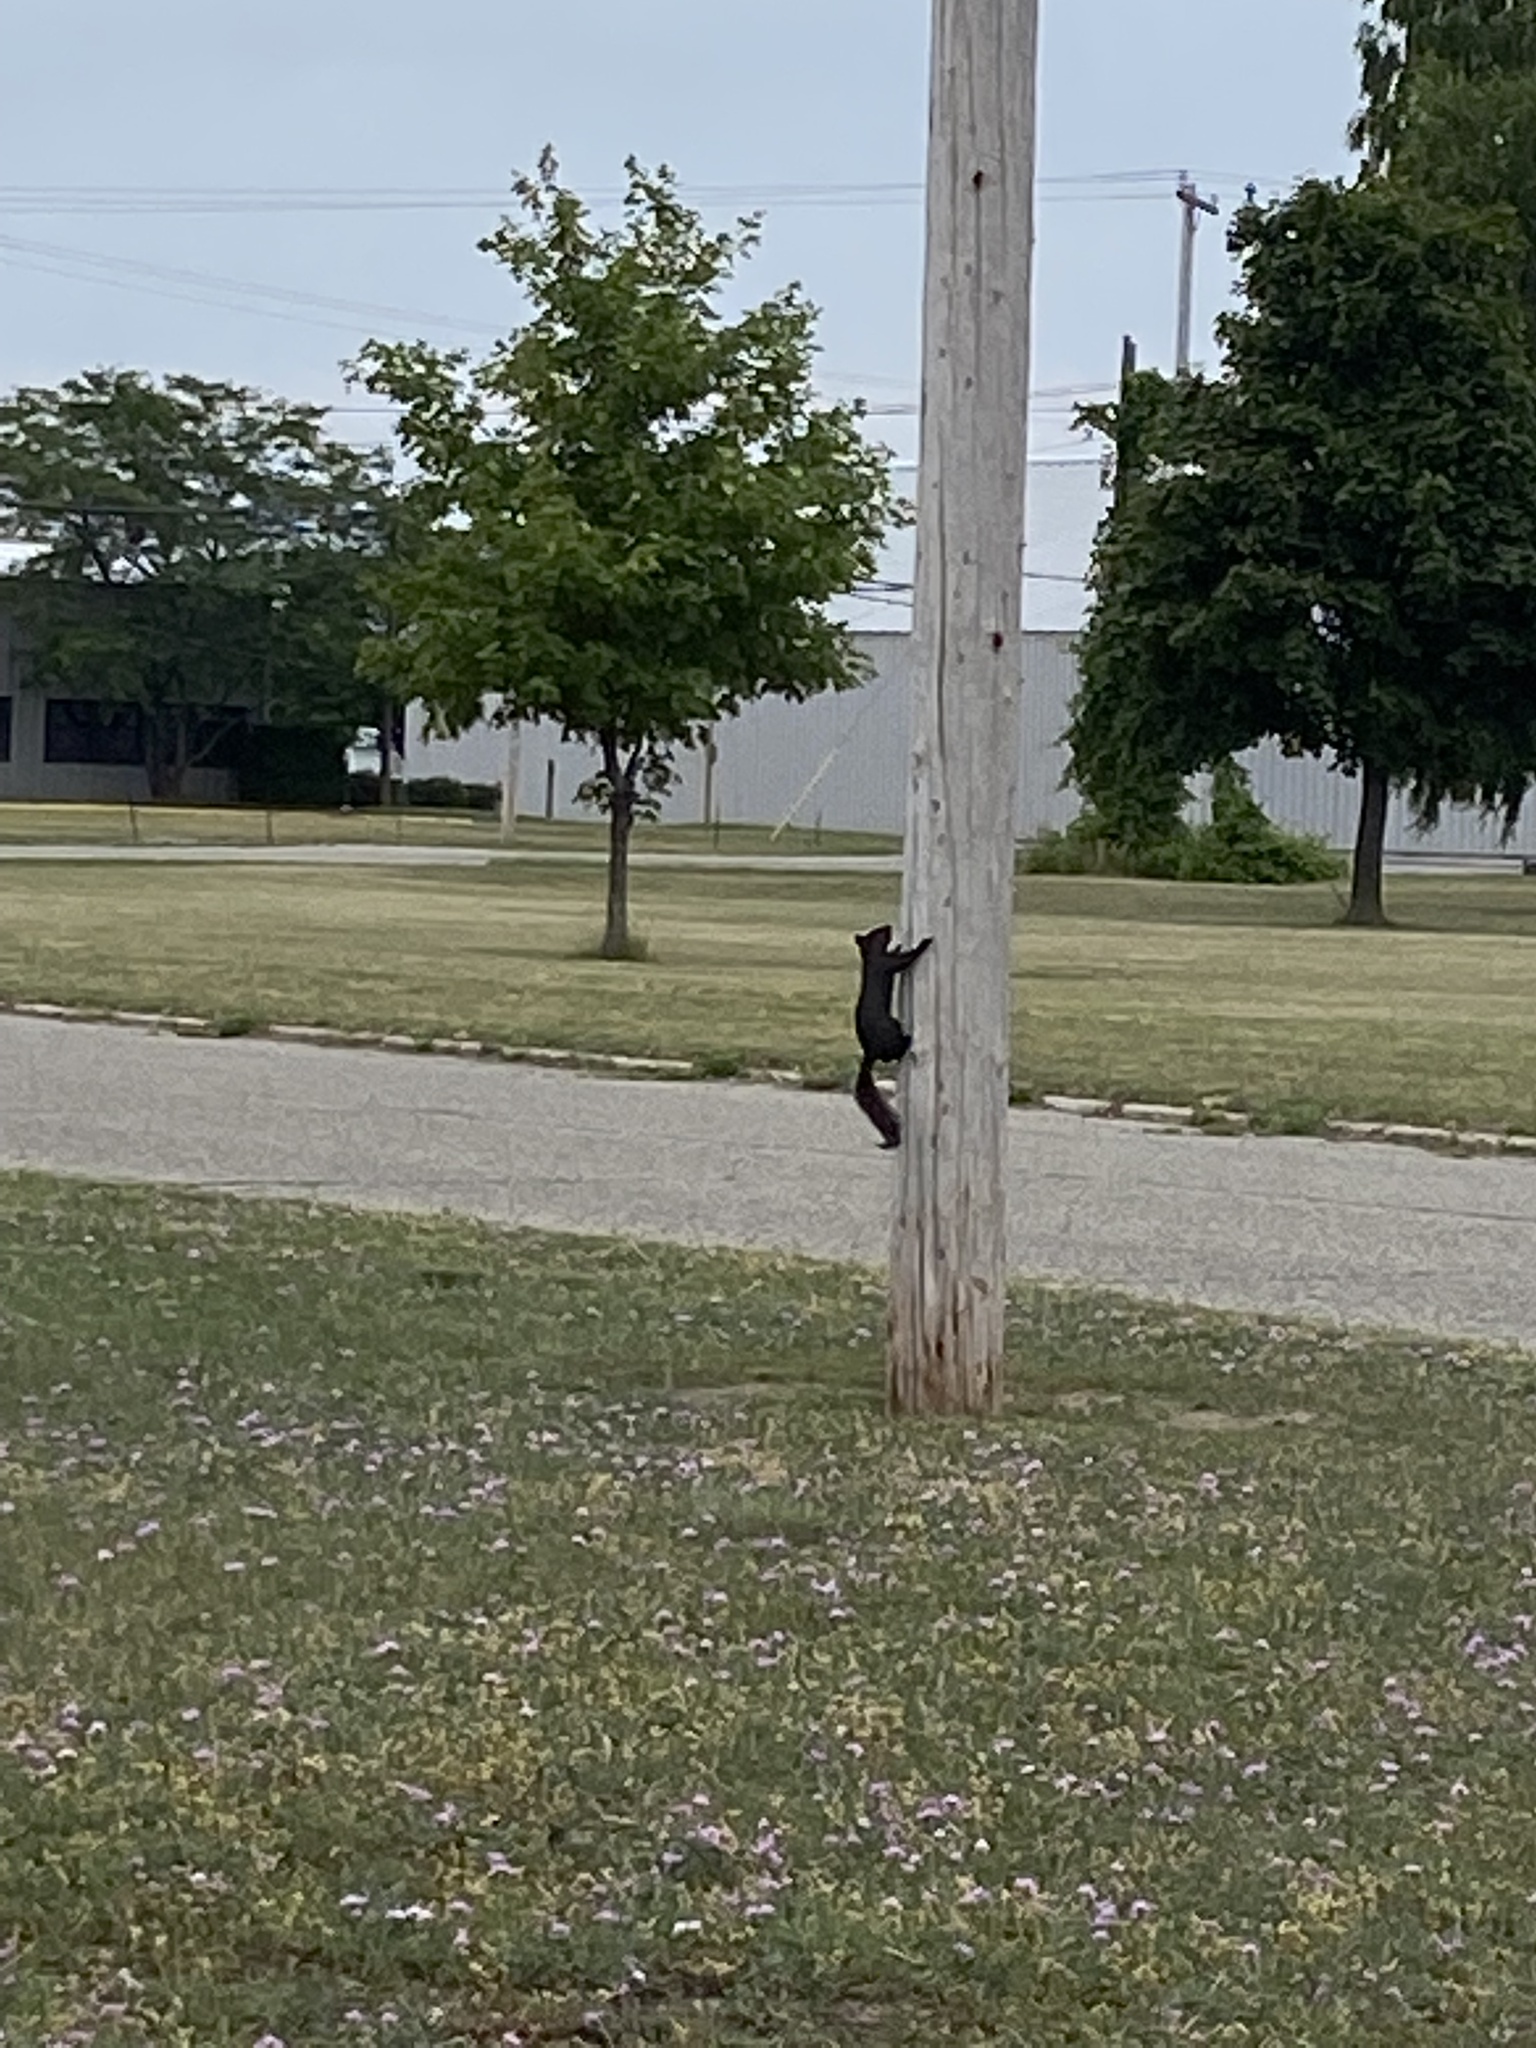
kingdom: Animalia
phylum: Chordata
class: Mammalia
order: Rodentia
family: Sciuridae
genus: Sciurus
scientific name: Sciurus carolinensis
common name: Eastern gray squirrel
